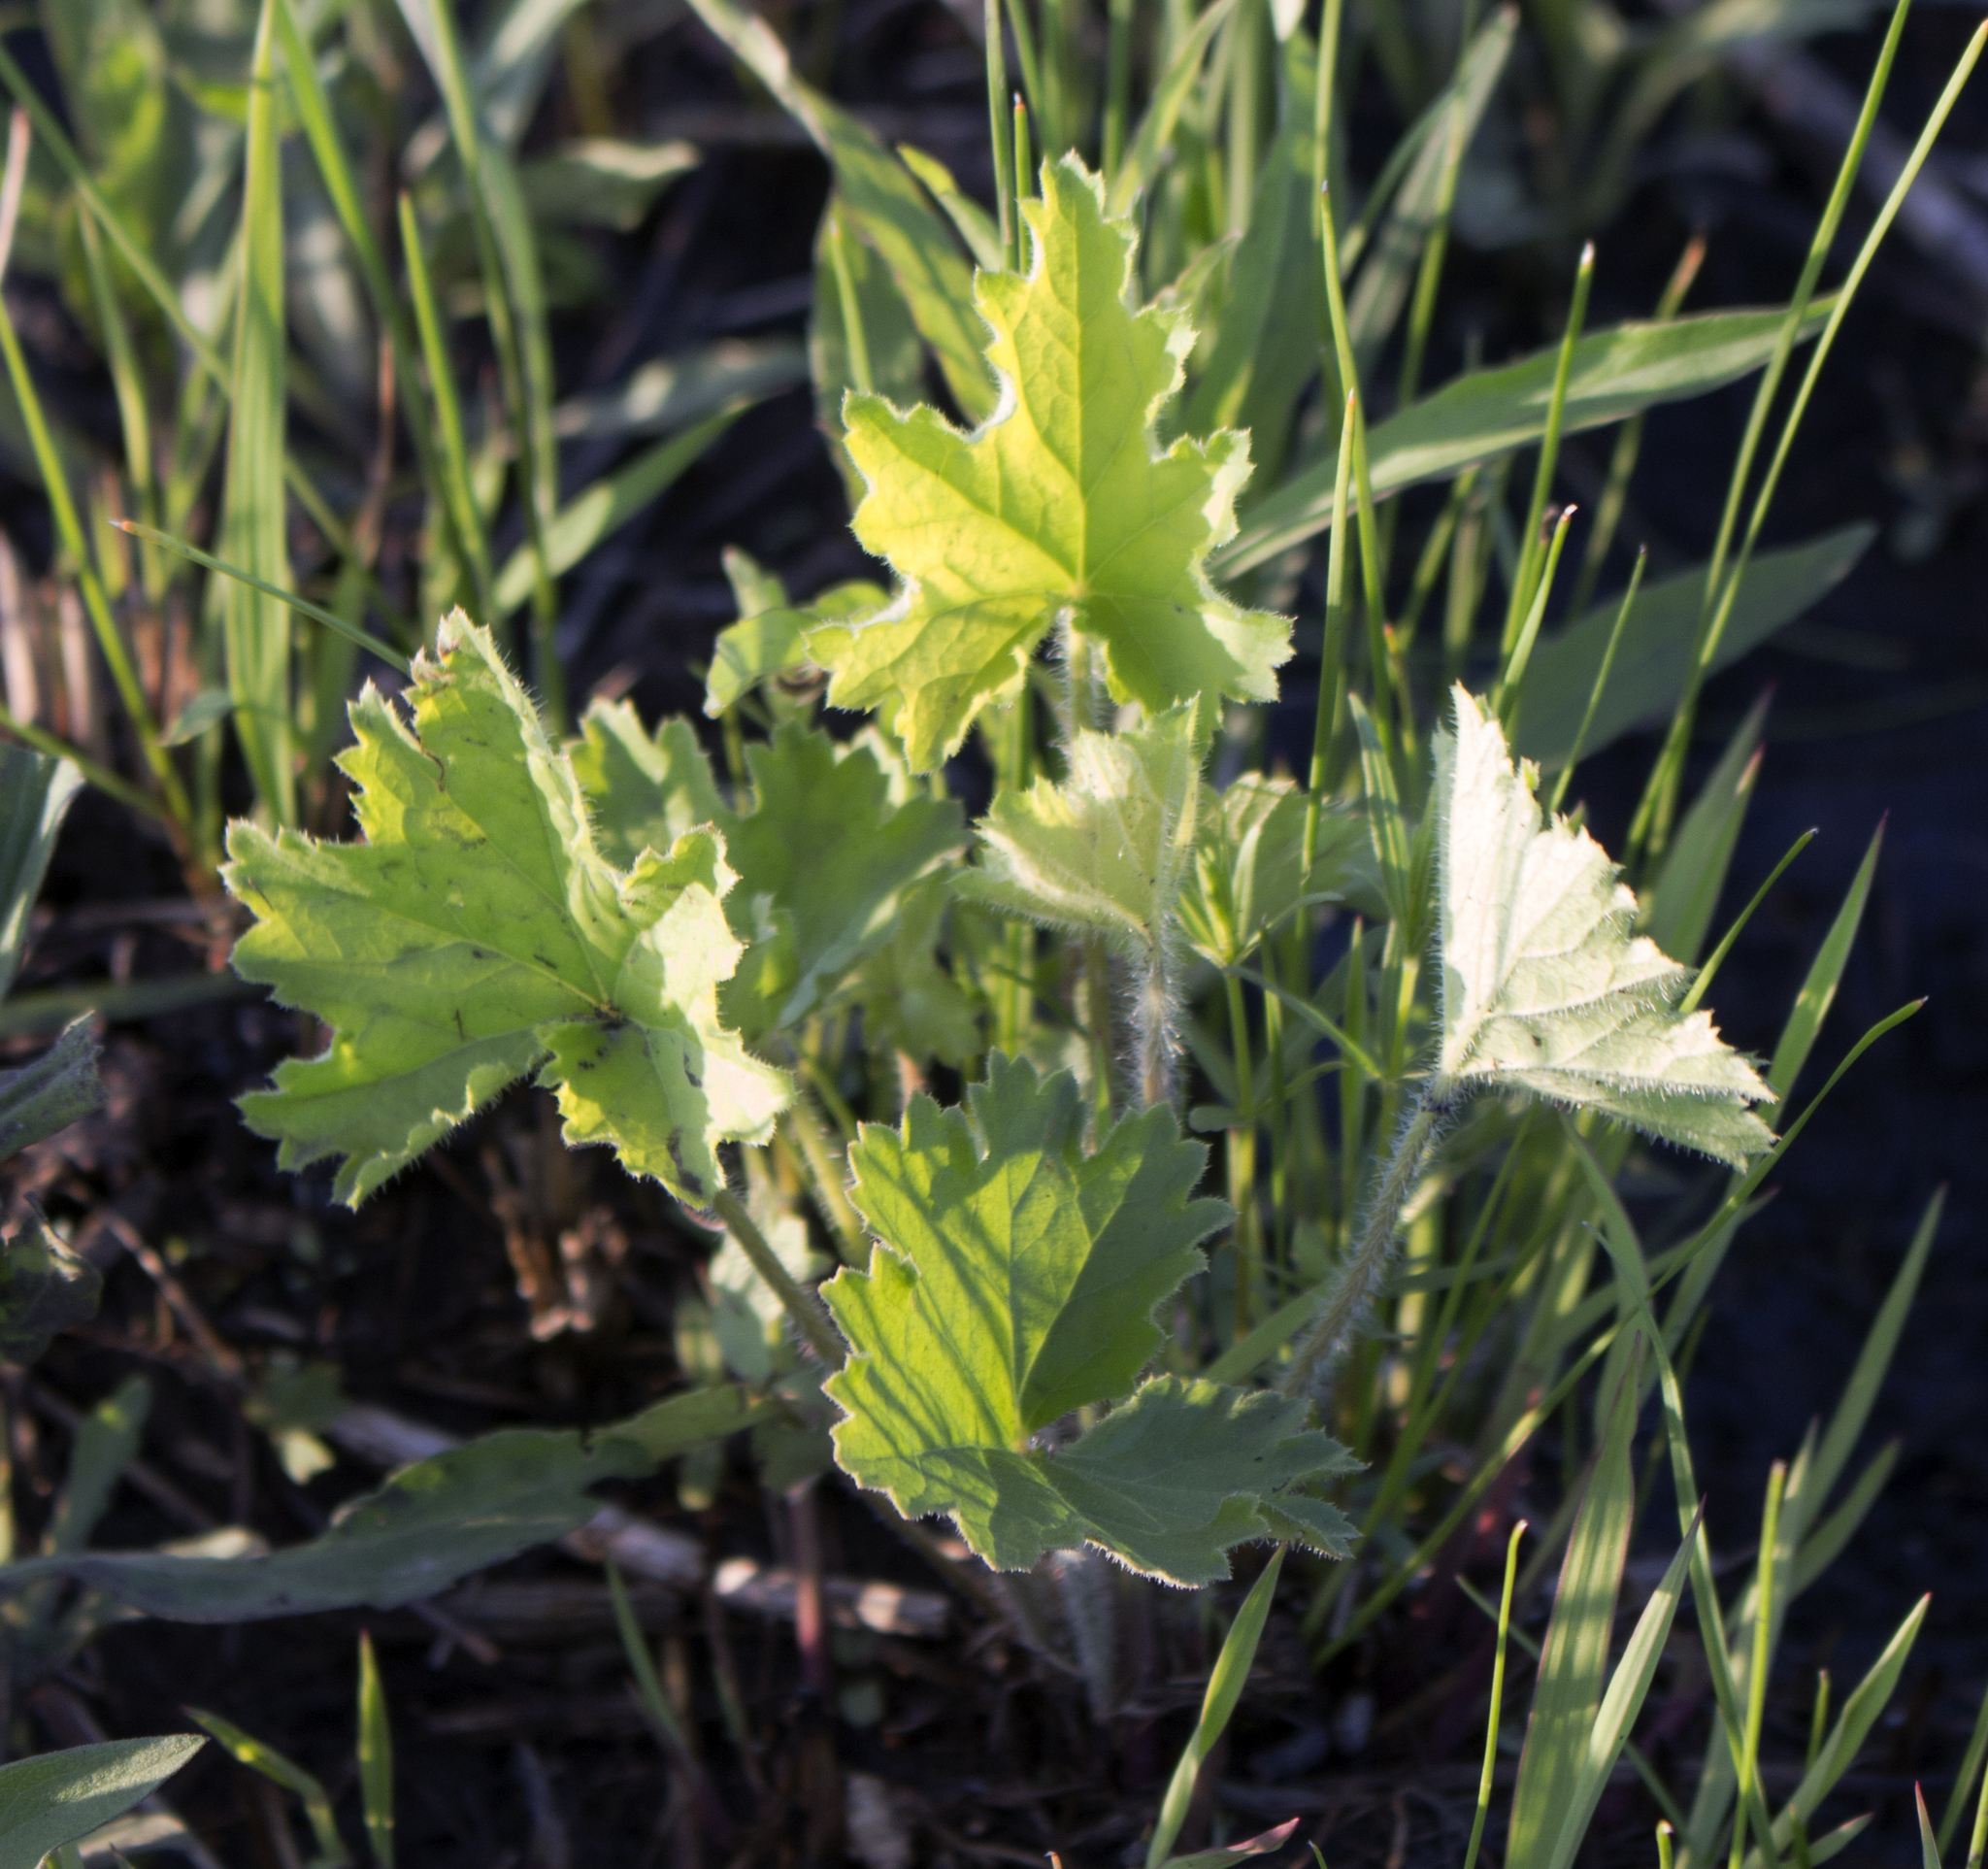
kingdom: Plantae
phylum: Tracheophyta
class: Magnoliopsida
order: Saxifragales
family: Saxifragaceae
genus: Heuchera
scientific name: Heuchera richardsonii
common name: Richardson's alumroot
